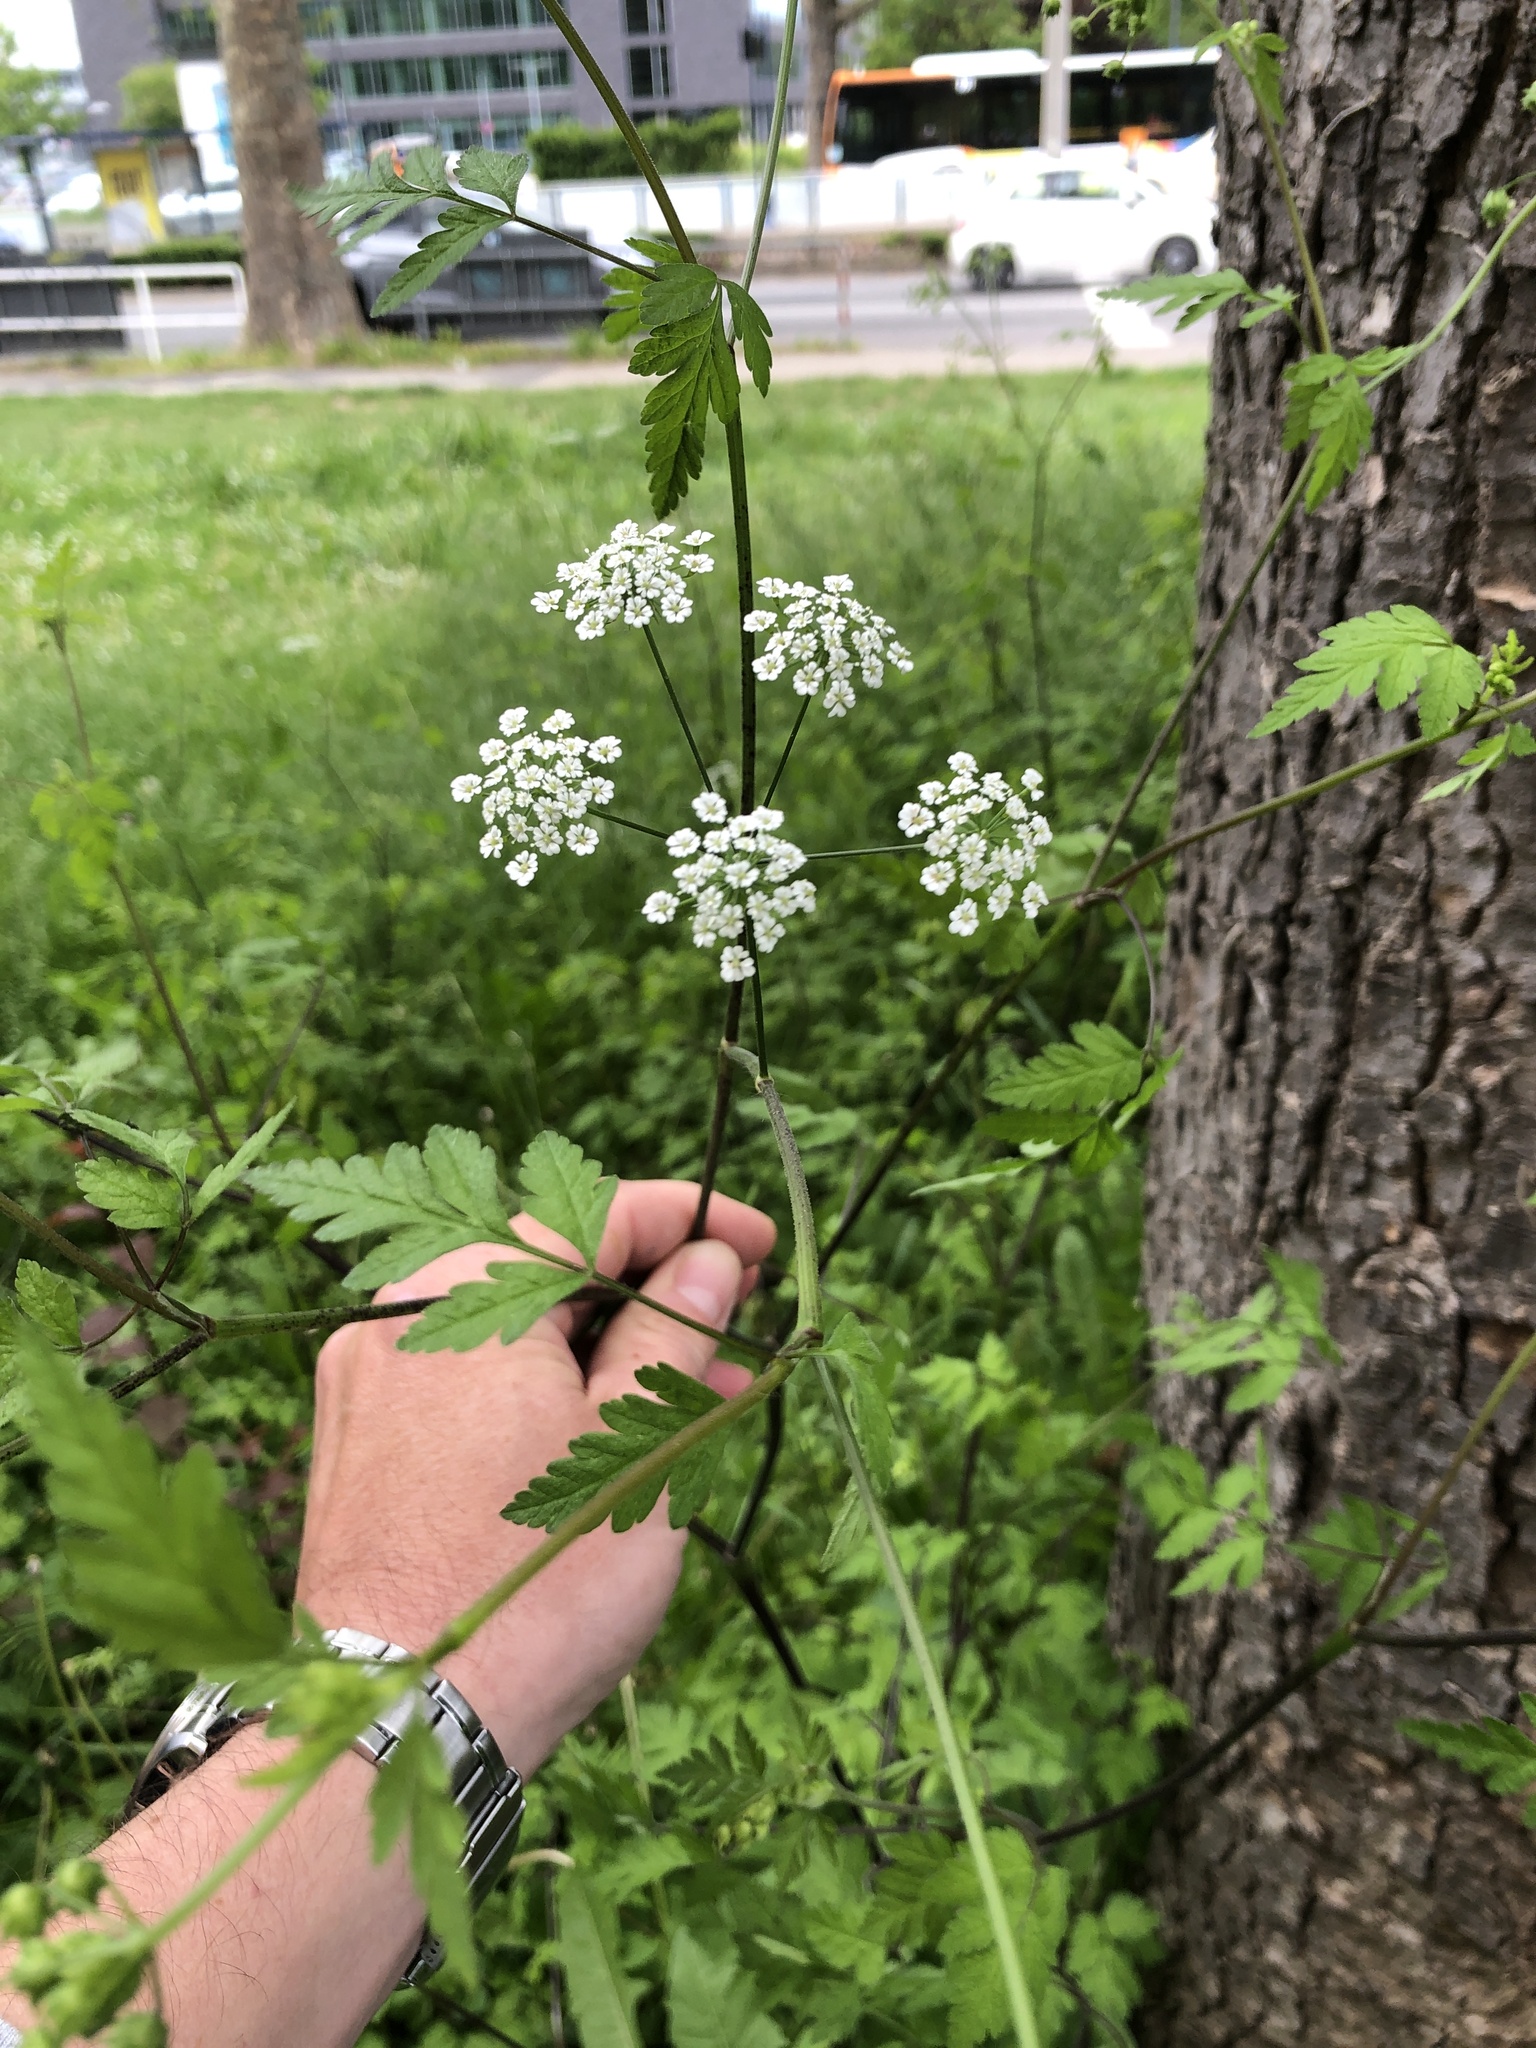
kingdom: Plantae
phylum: Tracheophyta
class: Magnoliopsida
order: Apiales
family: Apiaceae
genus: Chaerophyllum
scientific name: Chaerophyllum temulum
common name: Rough chervil
